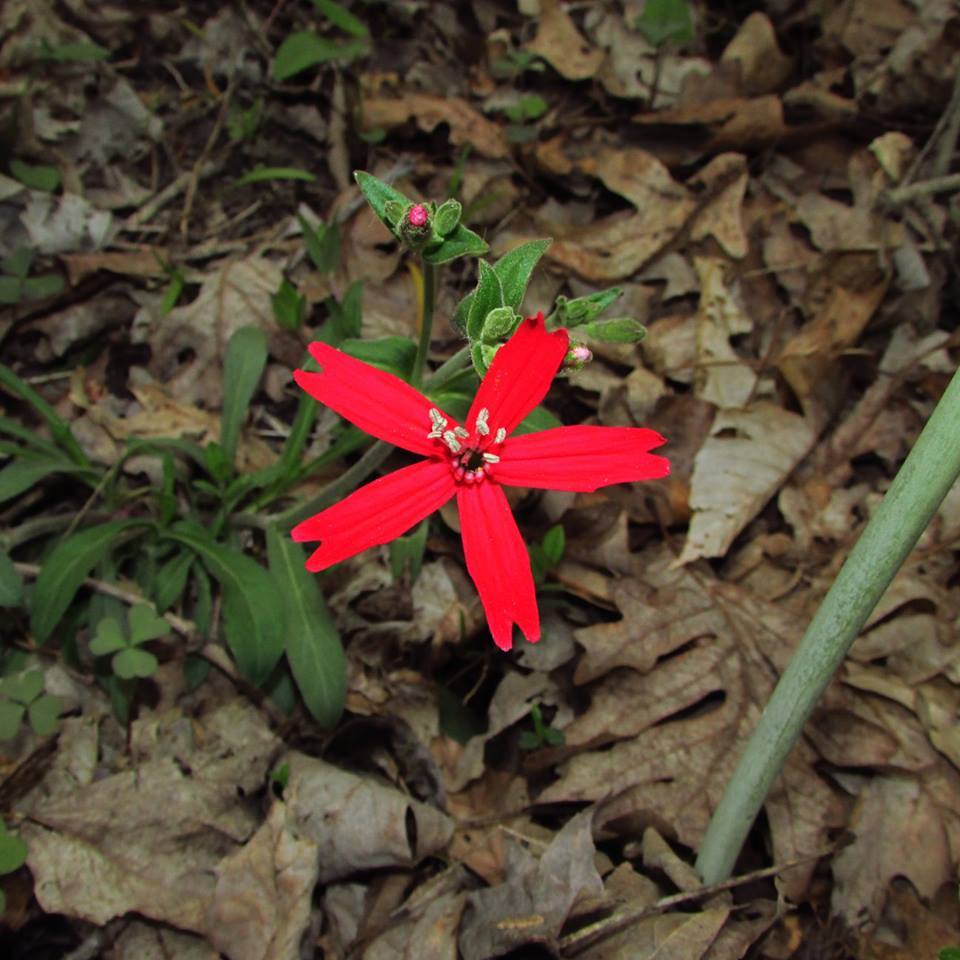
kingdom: Plantae
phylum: Tracheophyta
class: Magnoliopsida
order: Caryophyllales
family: Caryophyllaceae
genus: Silene
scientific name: Silene virginica
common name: Fire-pink
